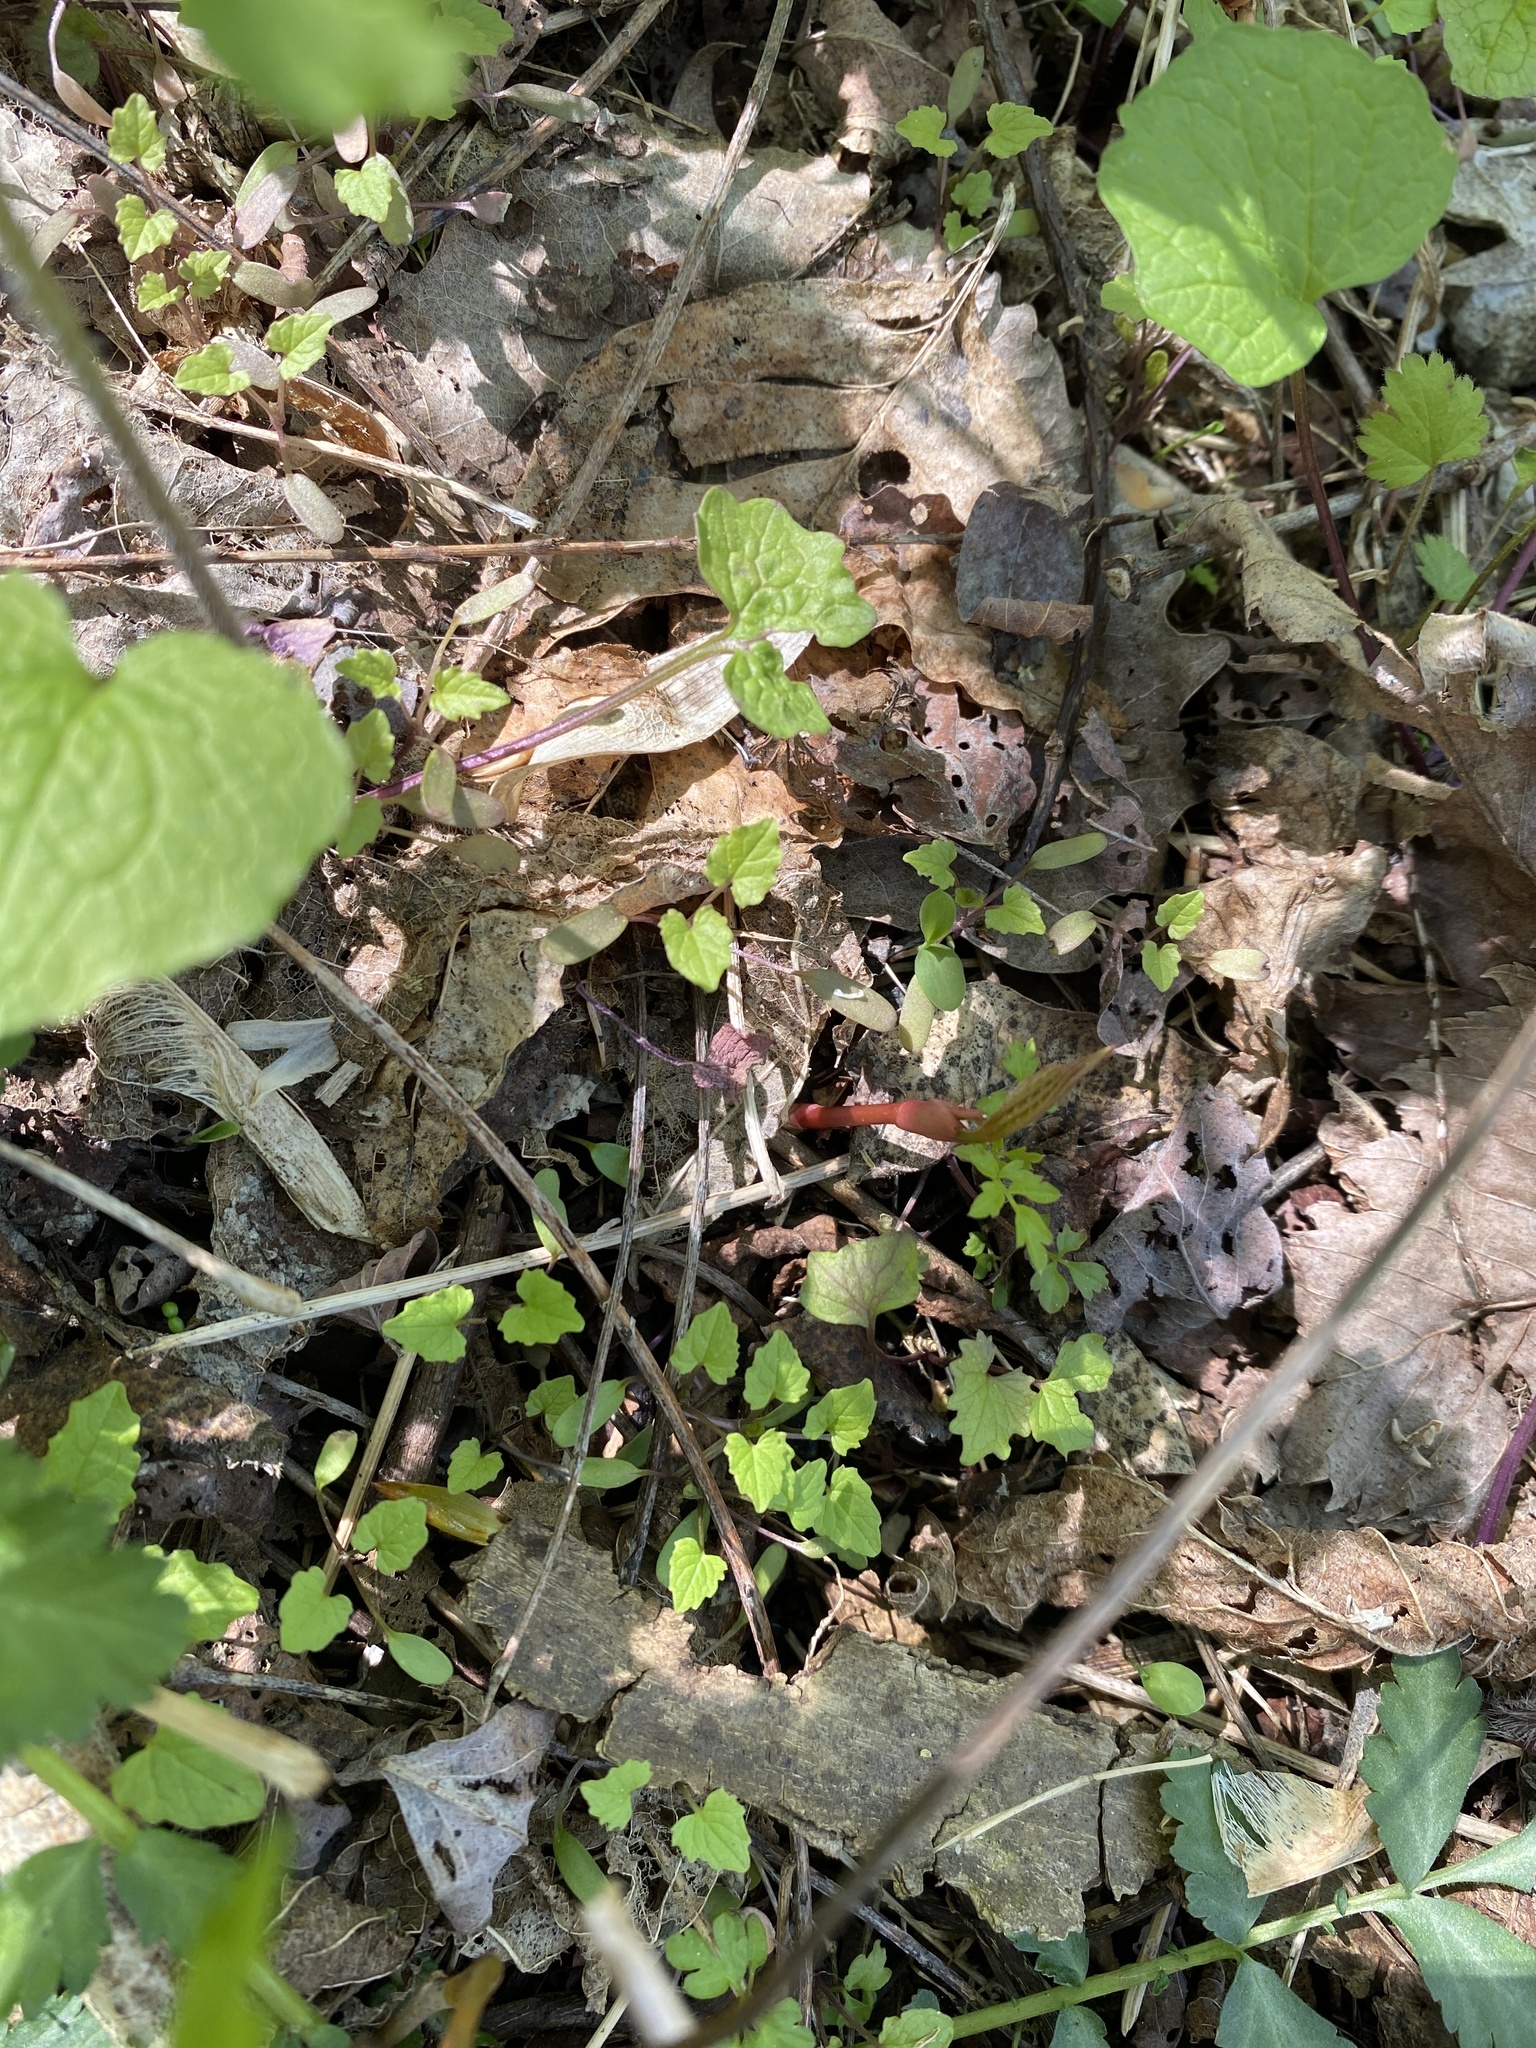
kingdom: Plantae
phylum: Tracheophyta
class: Magnoliopsida
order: Brassicales
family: Brassicaceae
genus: Alliaria
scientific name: Alliaria petiolata
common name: Garlic mustard
